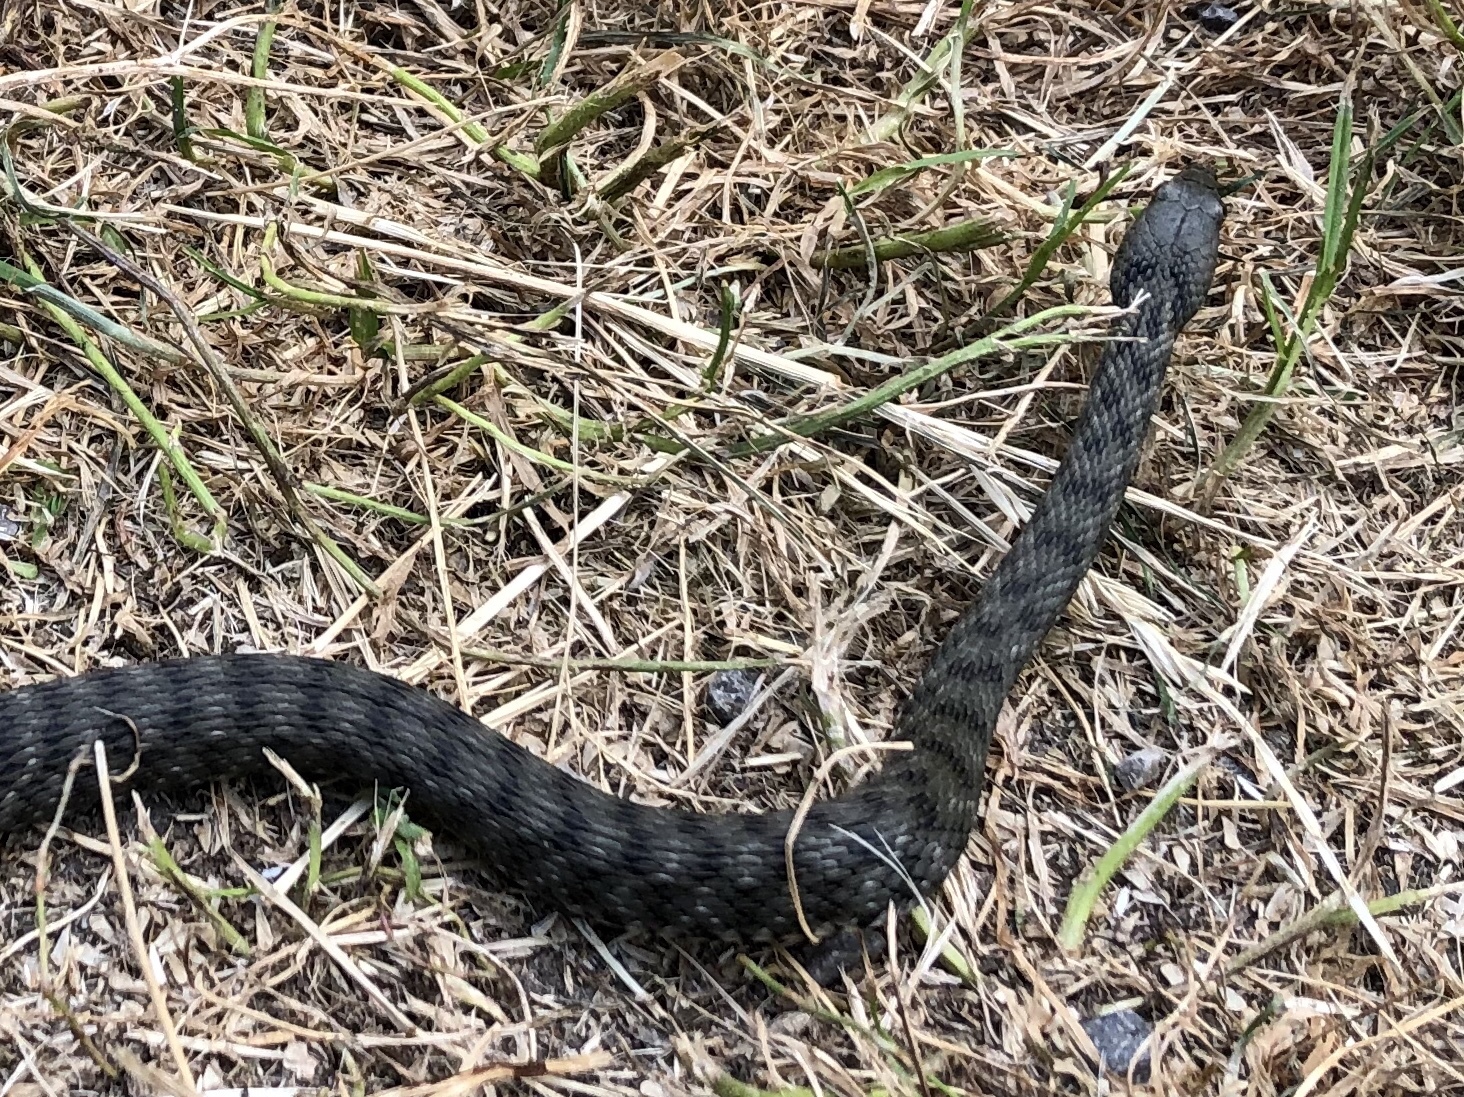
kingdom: Animalia
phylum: Chordata
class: Squamata
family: Colubridae
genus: Natrix
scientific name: Natrix tessellata
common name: Dice snake
